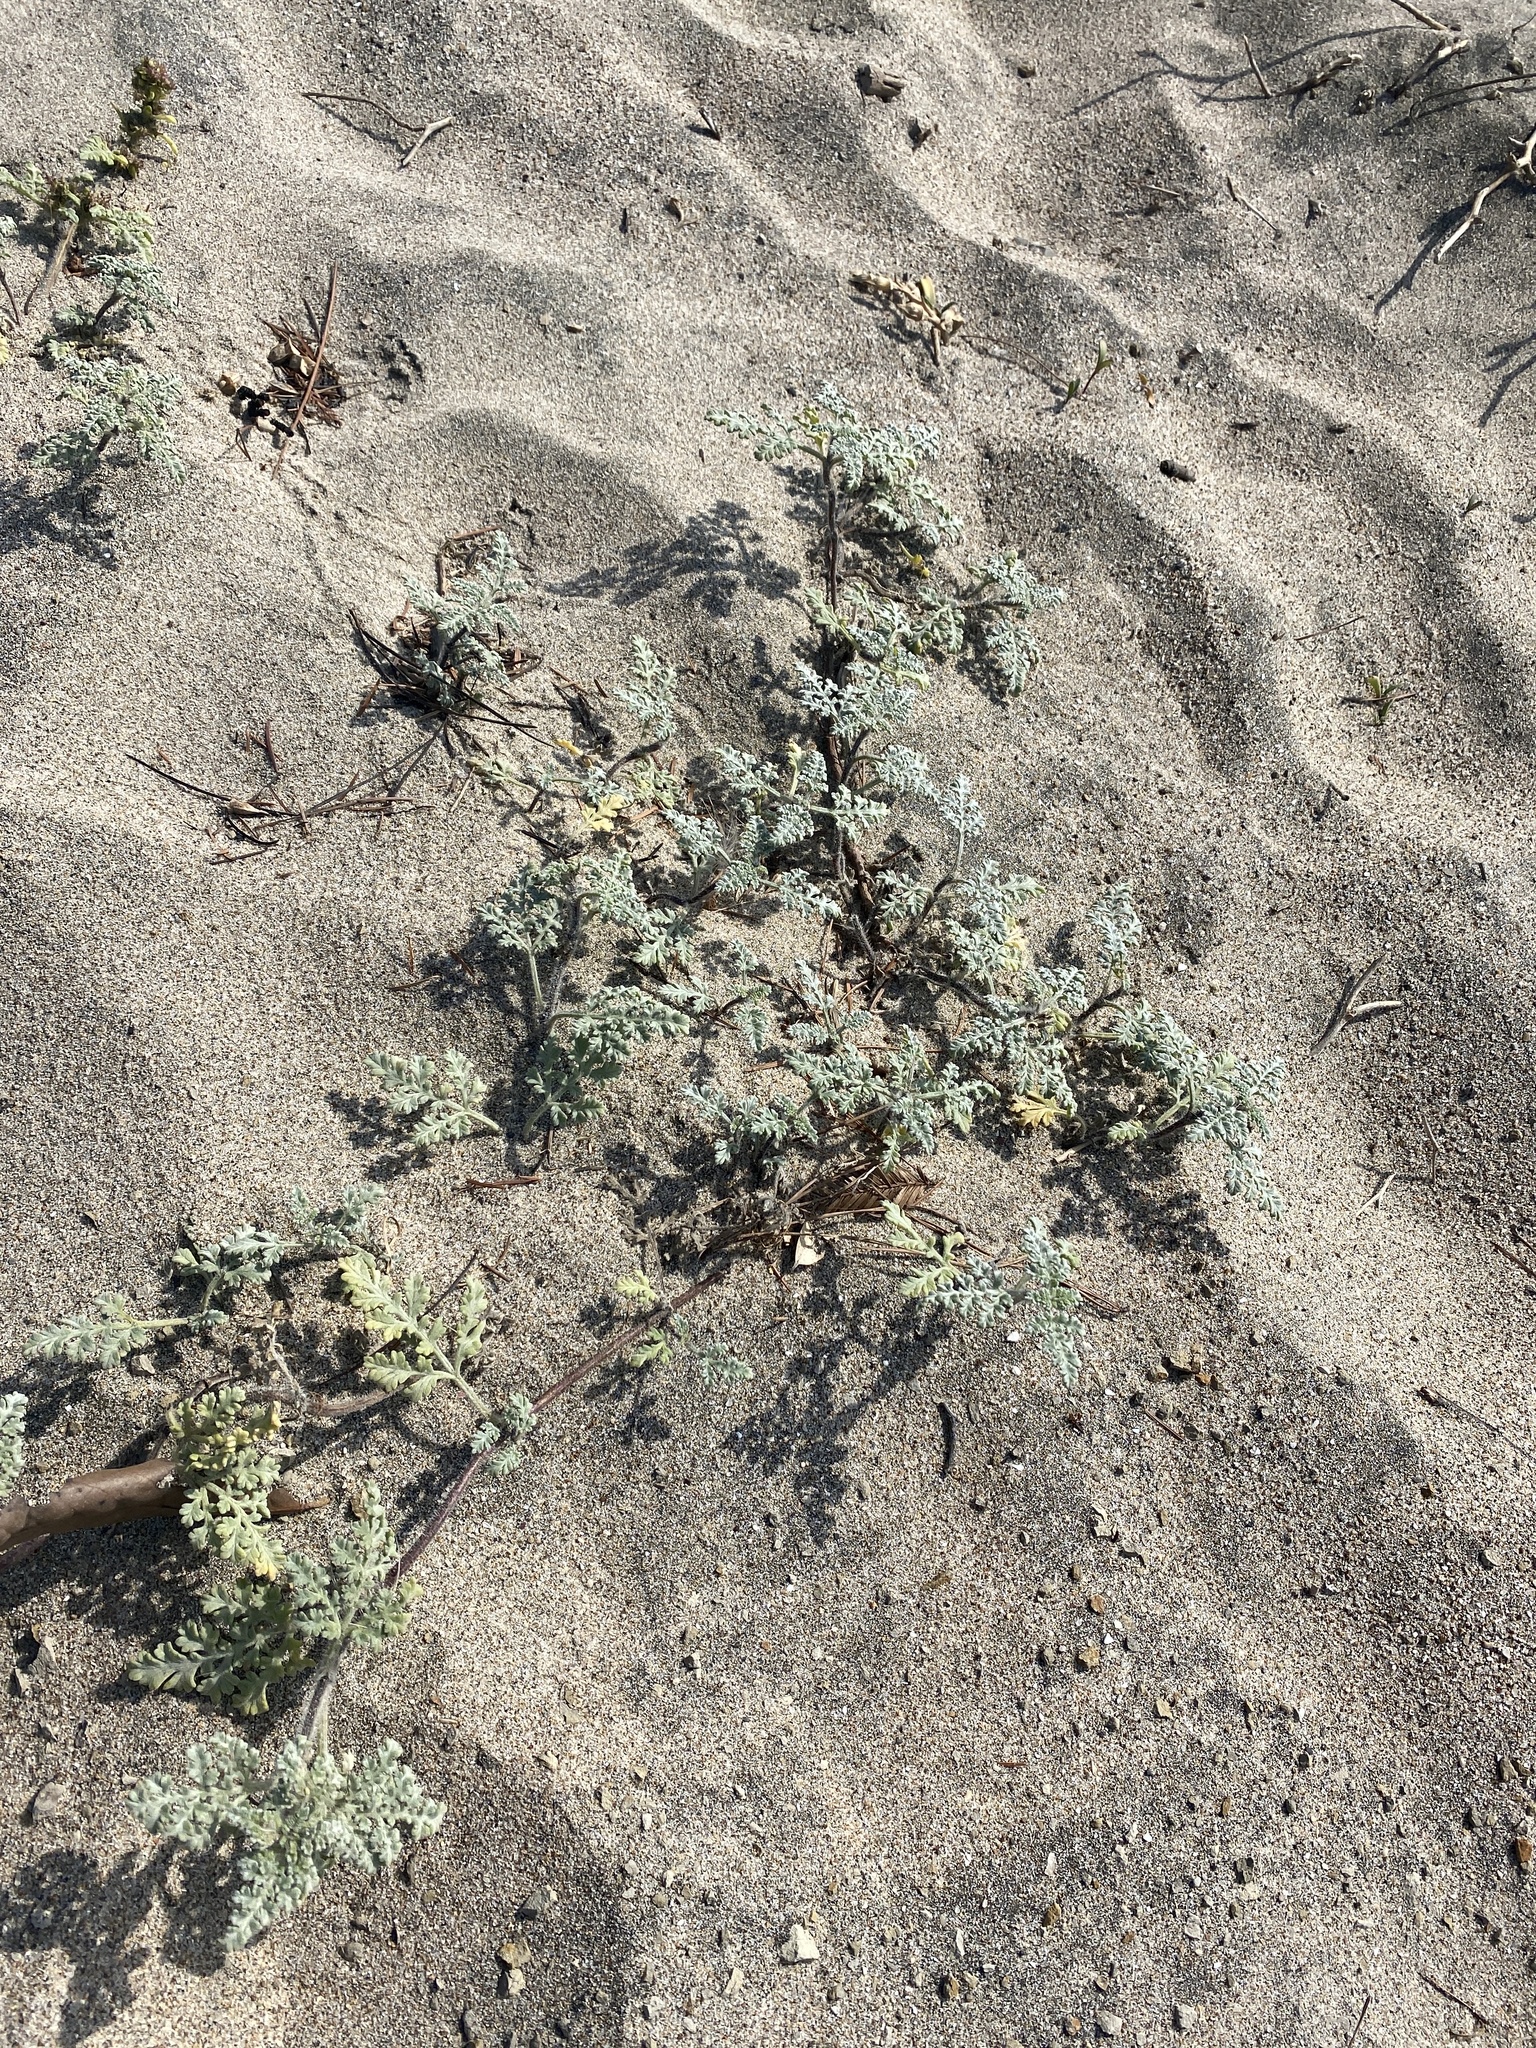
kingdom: Plantae
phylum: Tracheophyta
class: Magnoliopsida
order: Asterales
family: Asteraceae
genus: Ambrosia
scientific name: Ambrosia chamissonis
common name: Beachbur
